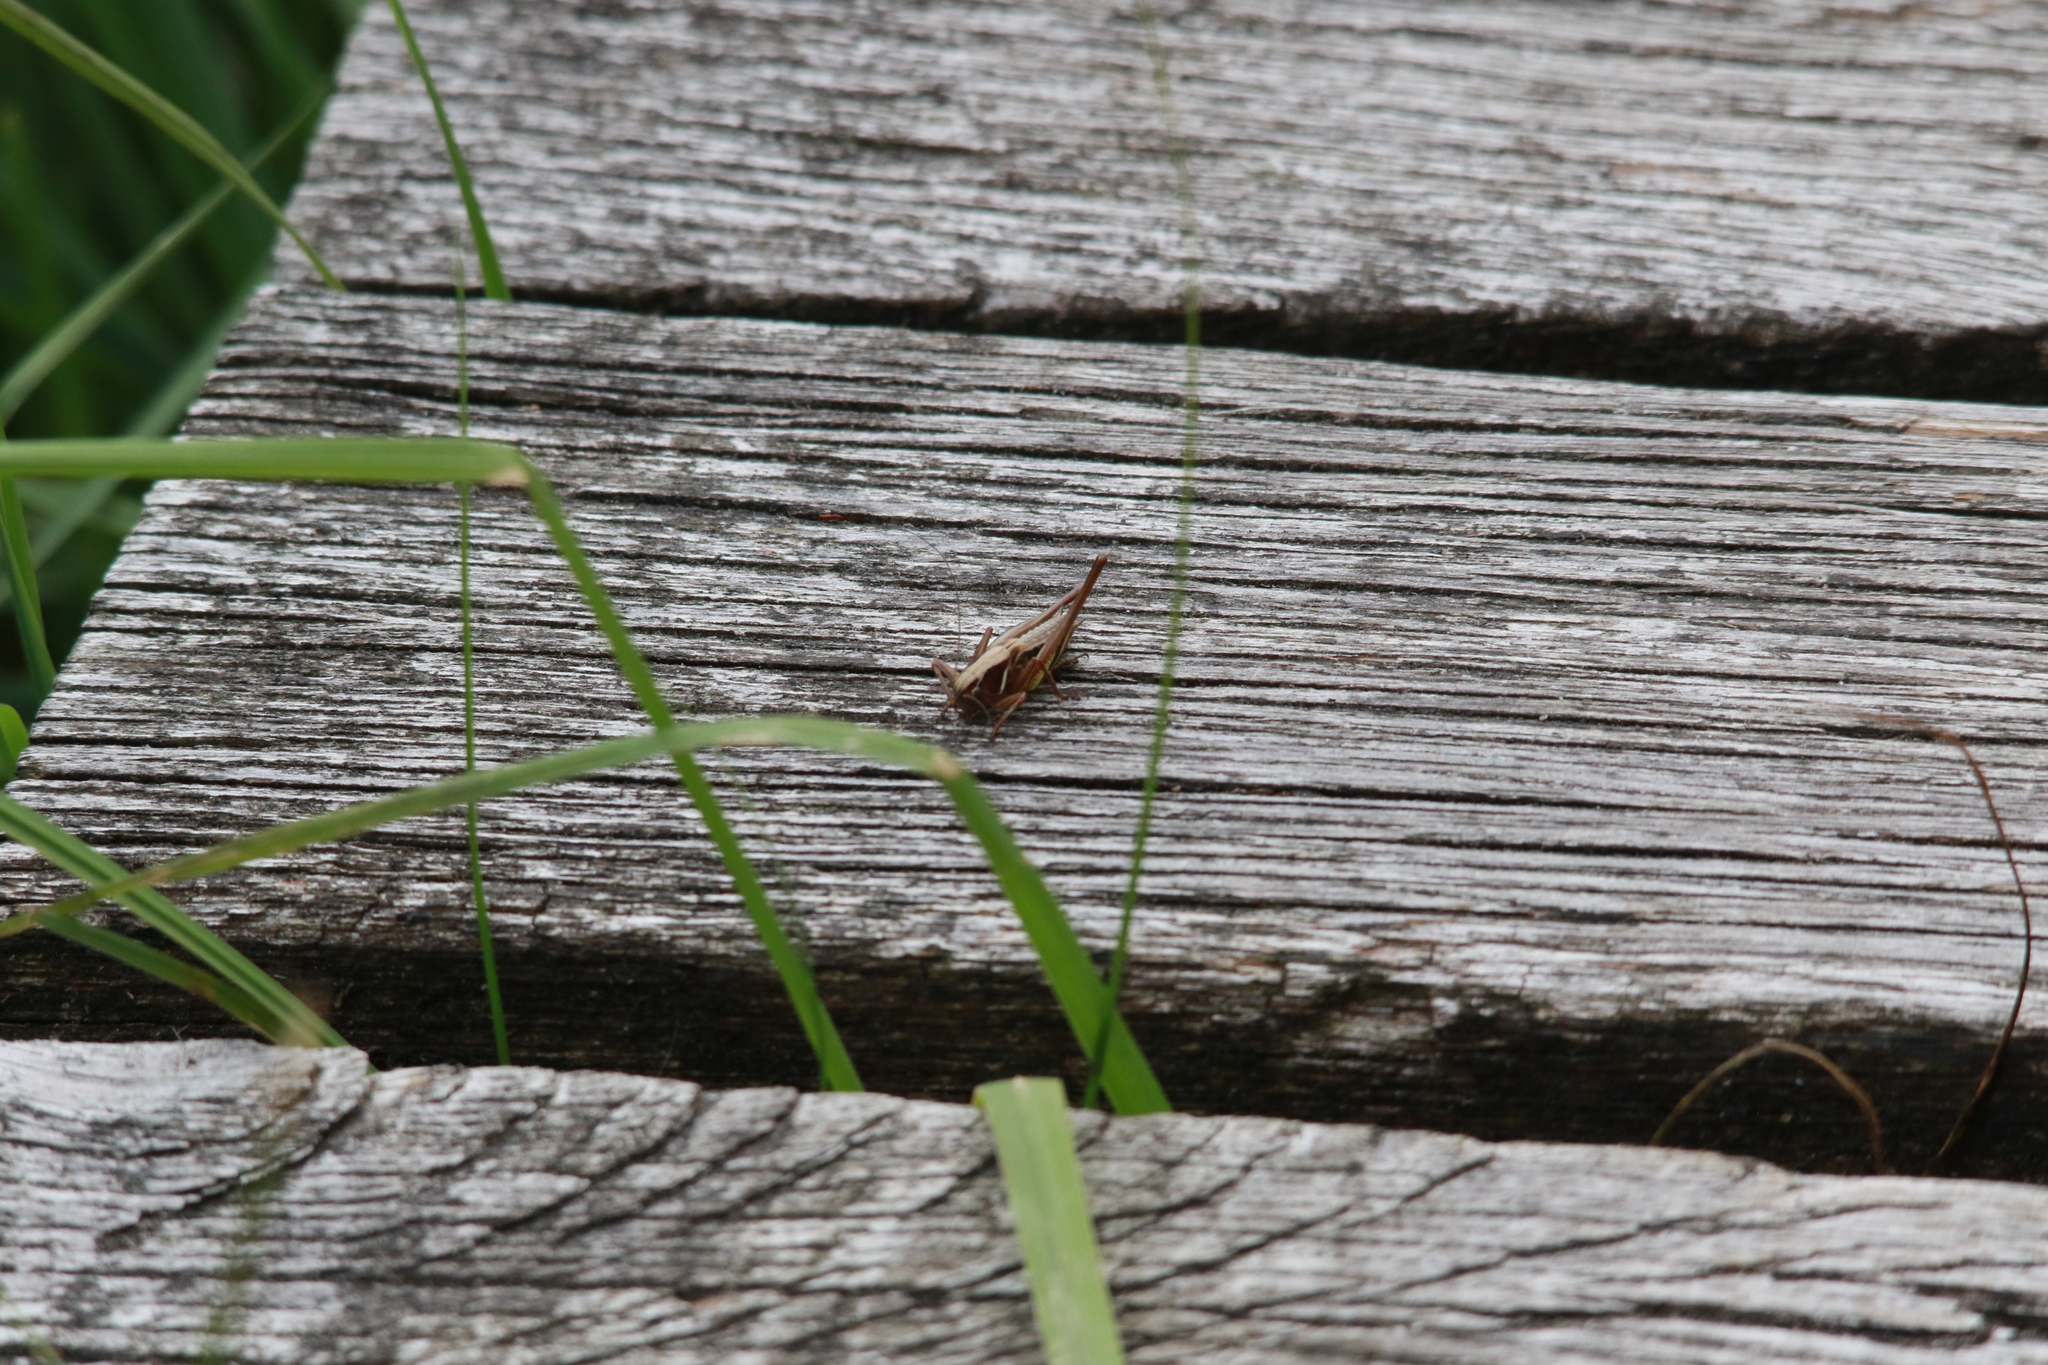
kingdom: Animalia
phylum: Arthropoda
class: Insecta
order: Orthoptera
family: Tettigoniidae
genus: Metrioptera
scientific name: Metrioptera brachyptera
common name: Bog bush-cricket
